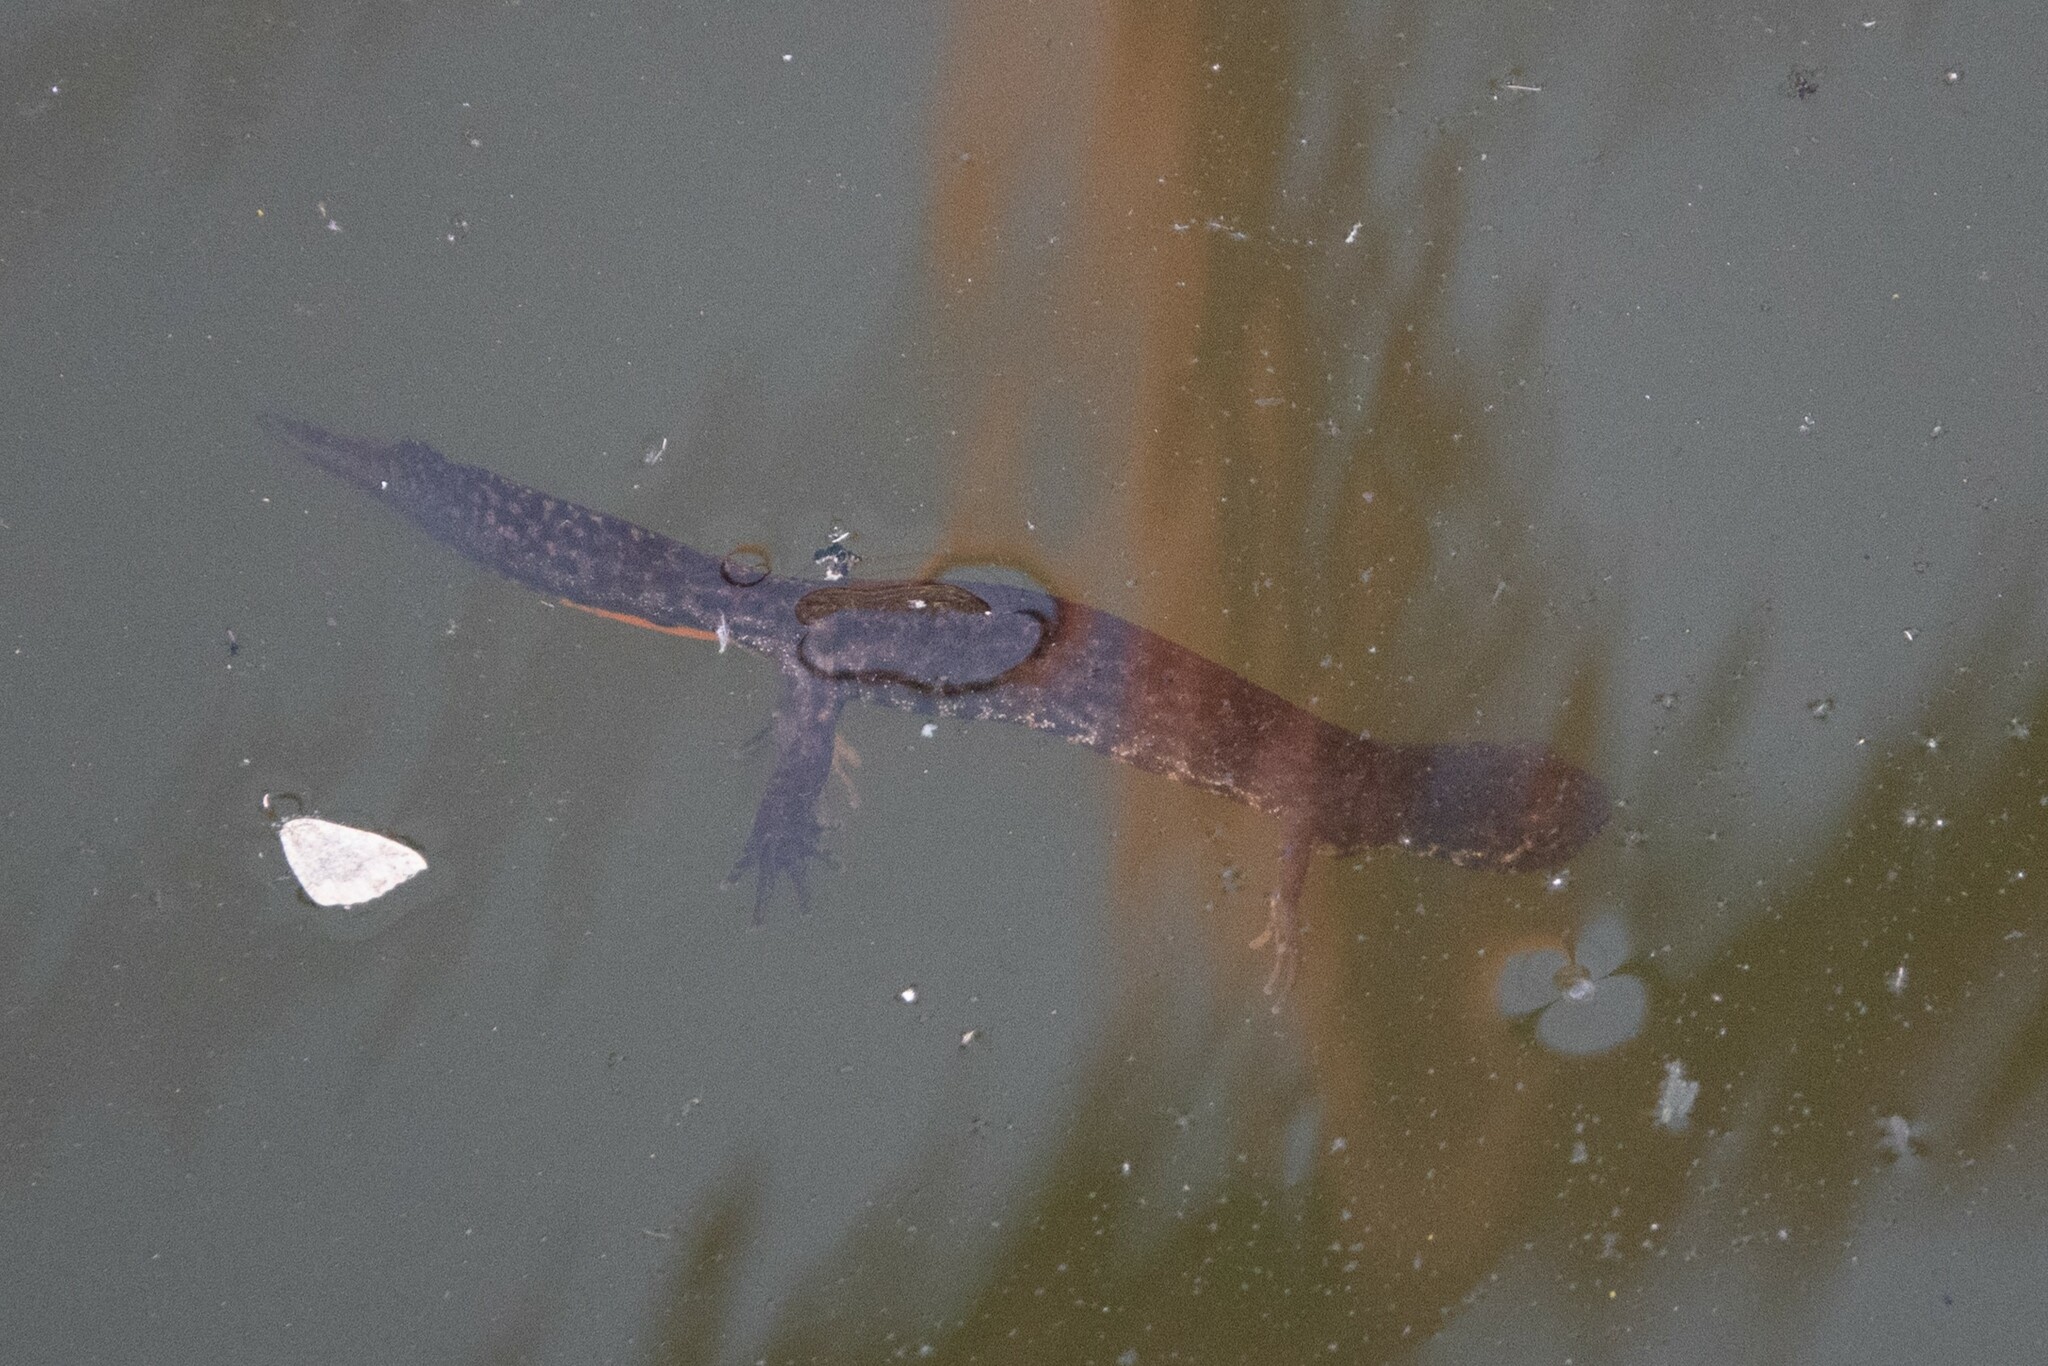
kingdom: Animalia
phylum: Chordata
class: Amphibia
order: Caudata
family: Salamandridae
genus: Triturus
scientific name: Triturus ivanbureschi
